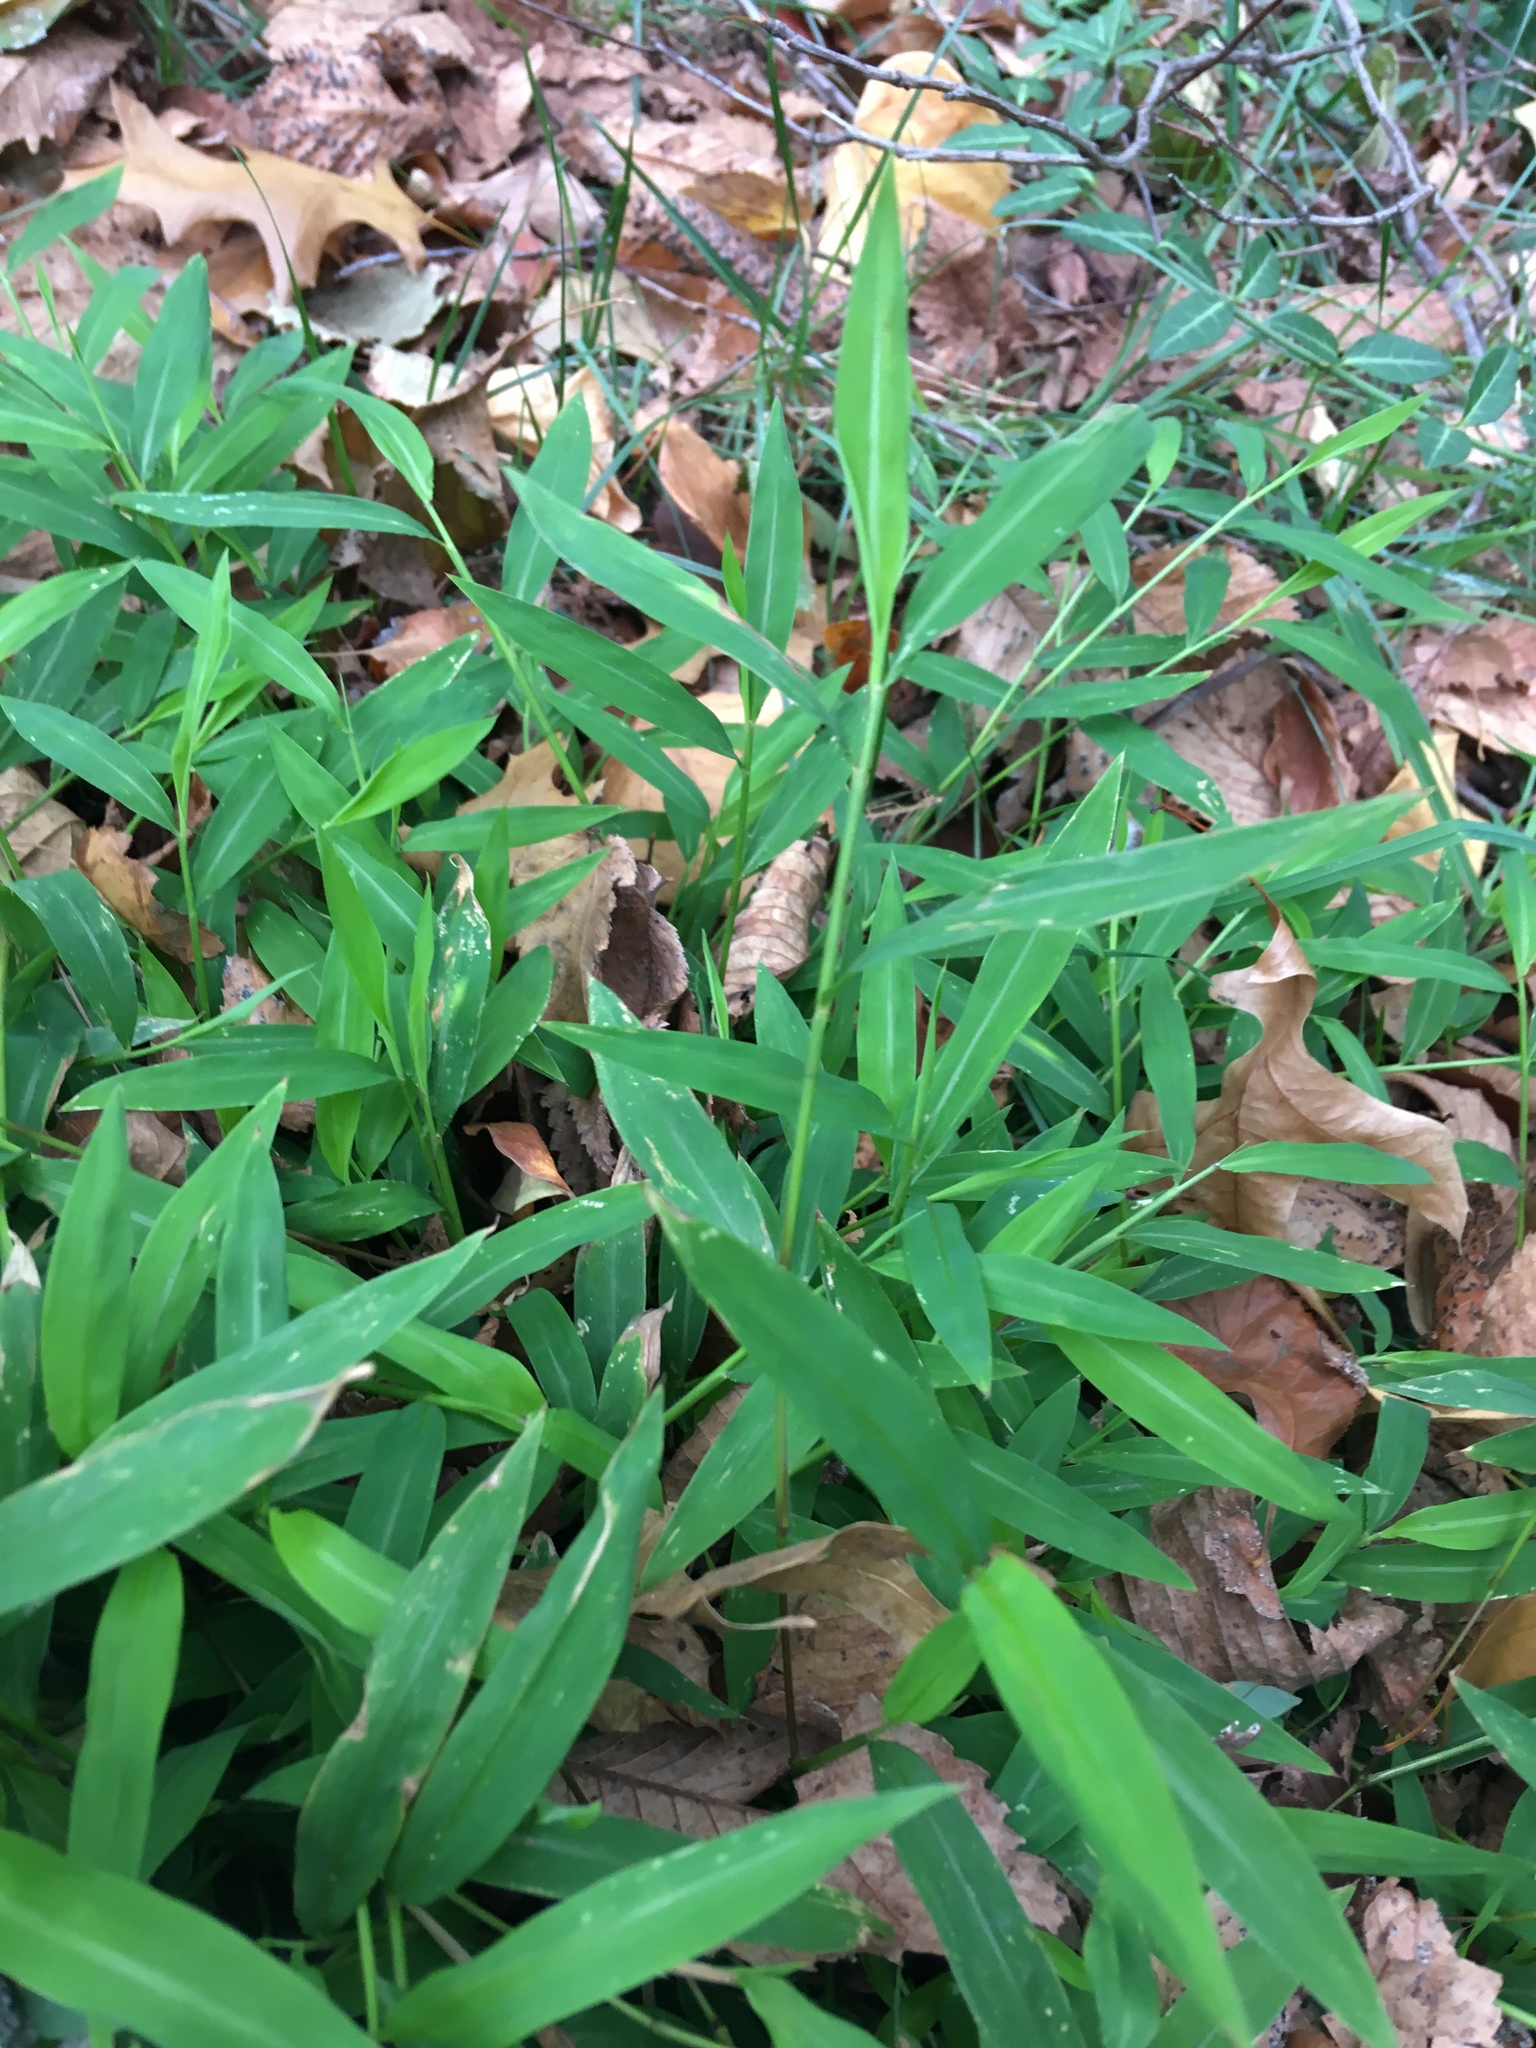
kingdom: Plantae
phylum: Tracheophyta
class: Liliopsida
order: Poales
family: Poaceae
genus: Microstegium
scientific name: Microstegium vimineum
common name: Japanese stiltgrass
